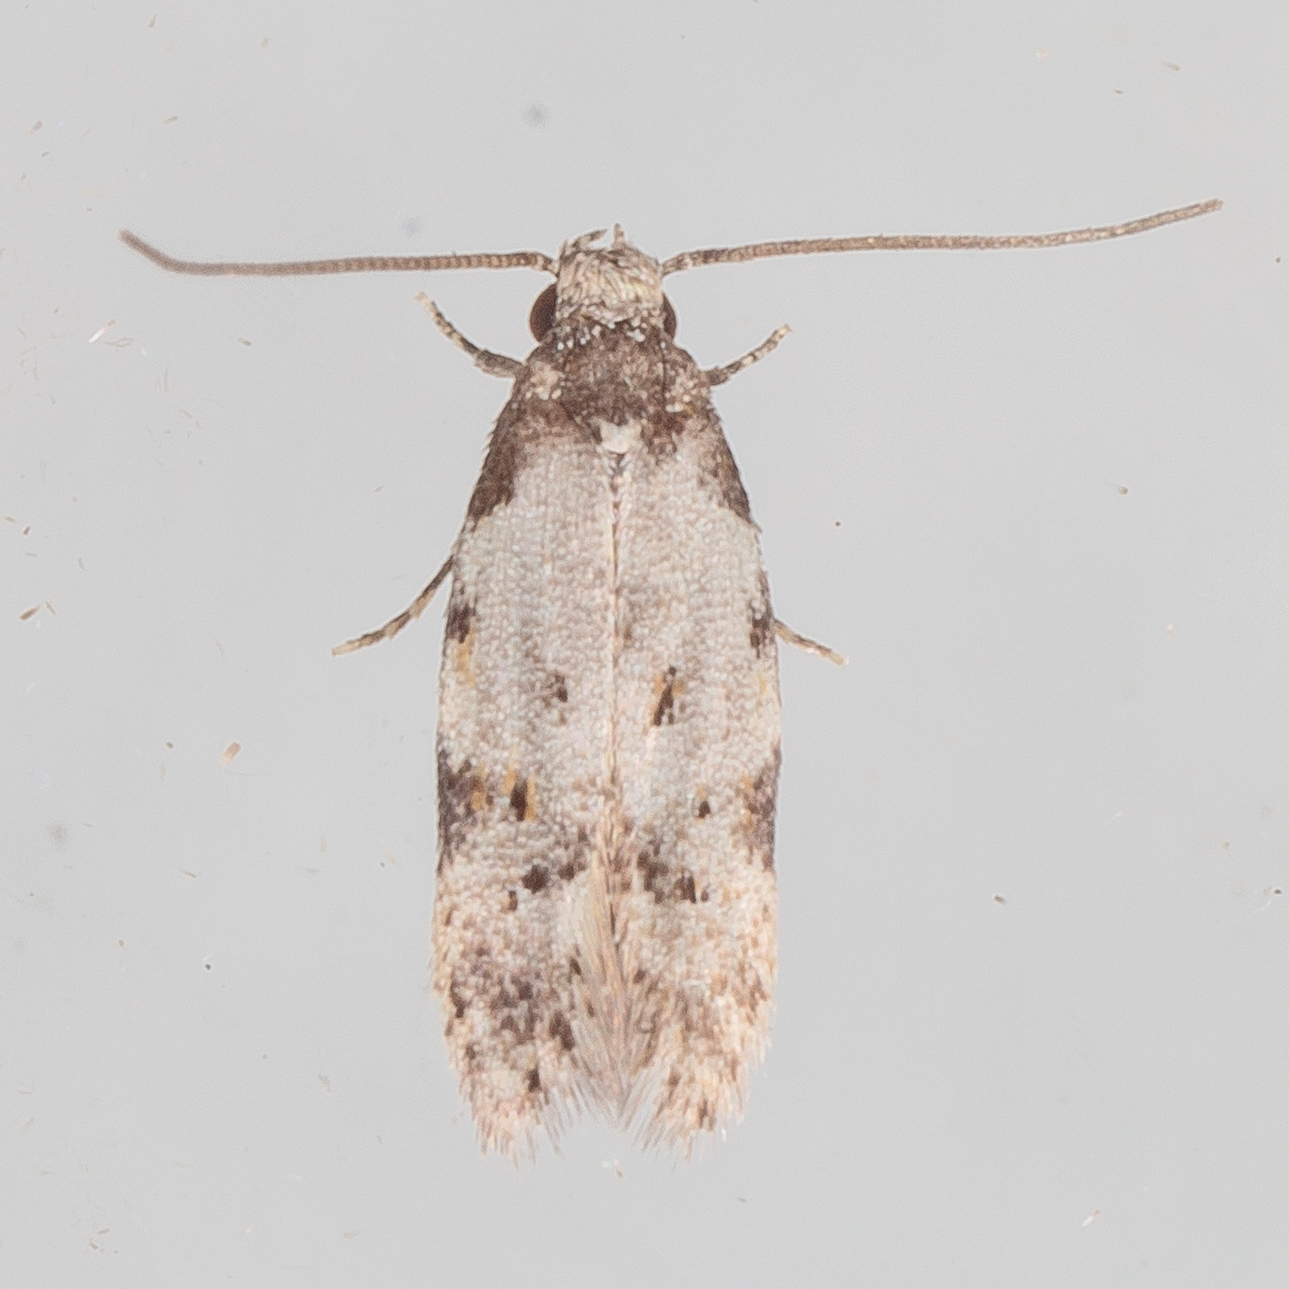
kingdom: Animalia
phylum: Arthropoda
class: Insecta
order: Lepidoptera
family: Autostichidae
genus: Taygete
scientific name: Taygete attributella
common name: Triangle-marked twirler moth
